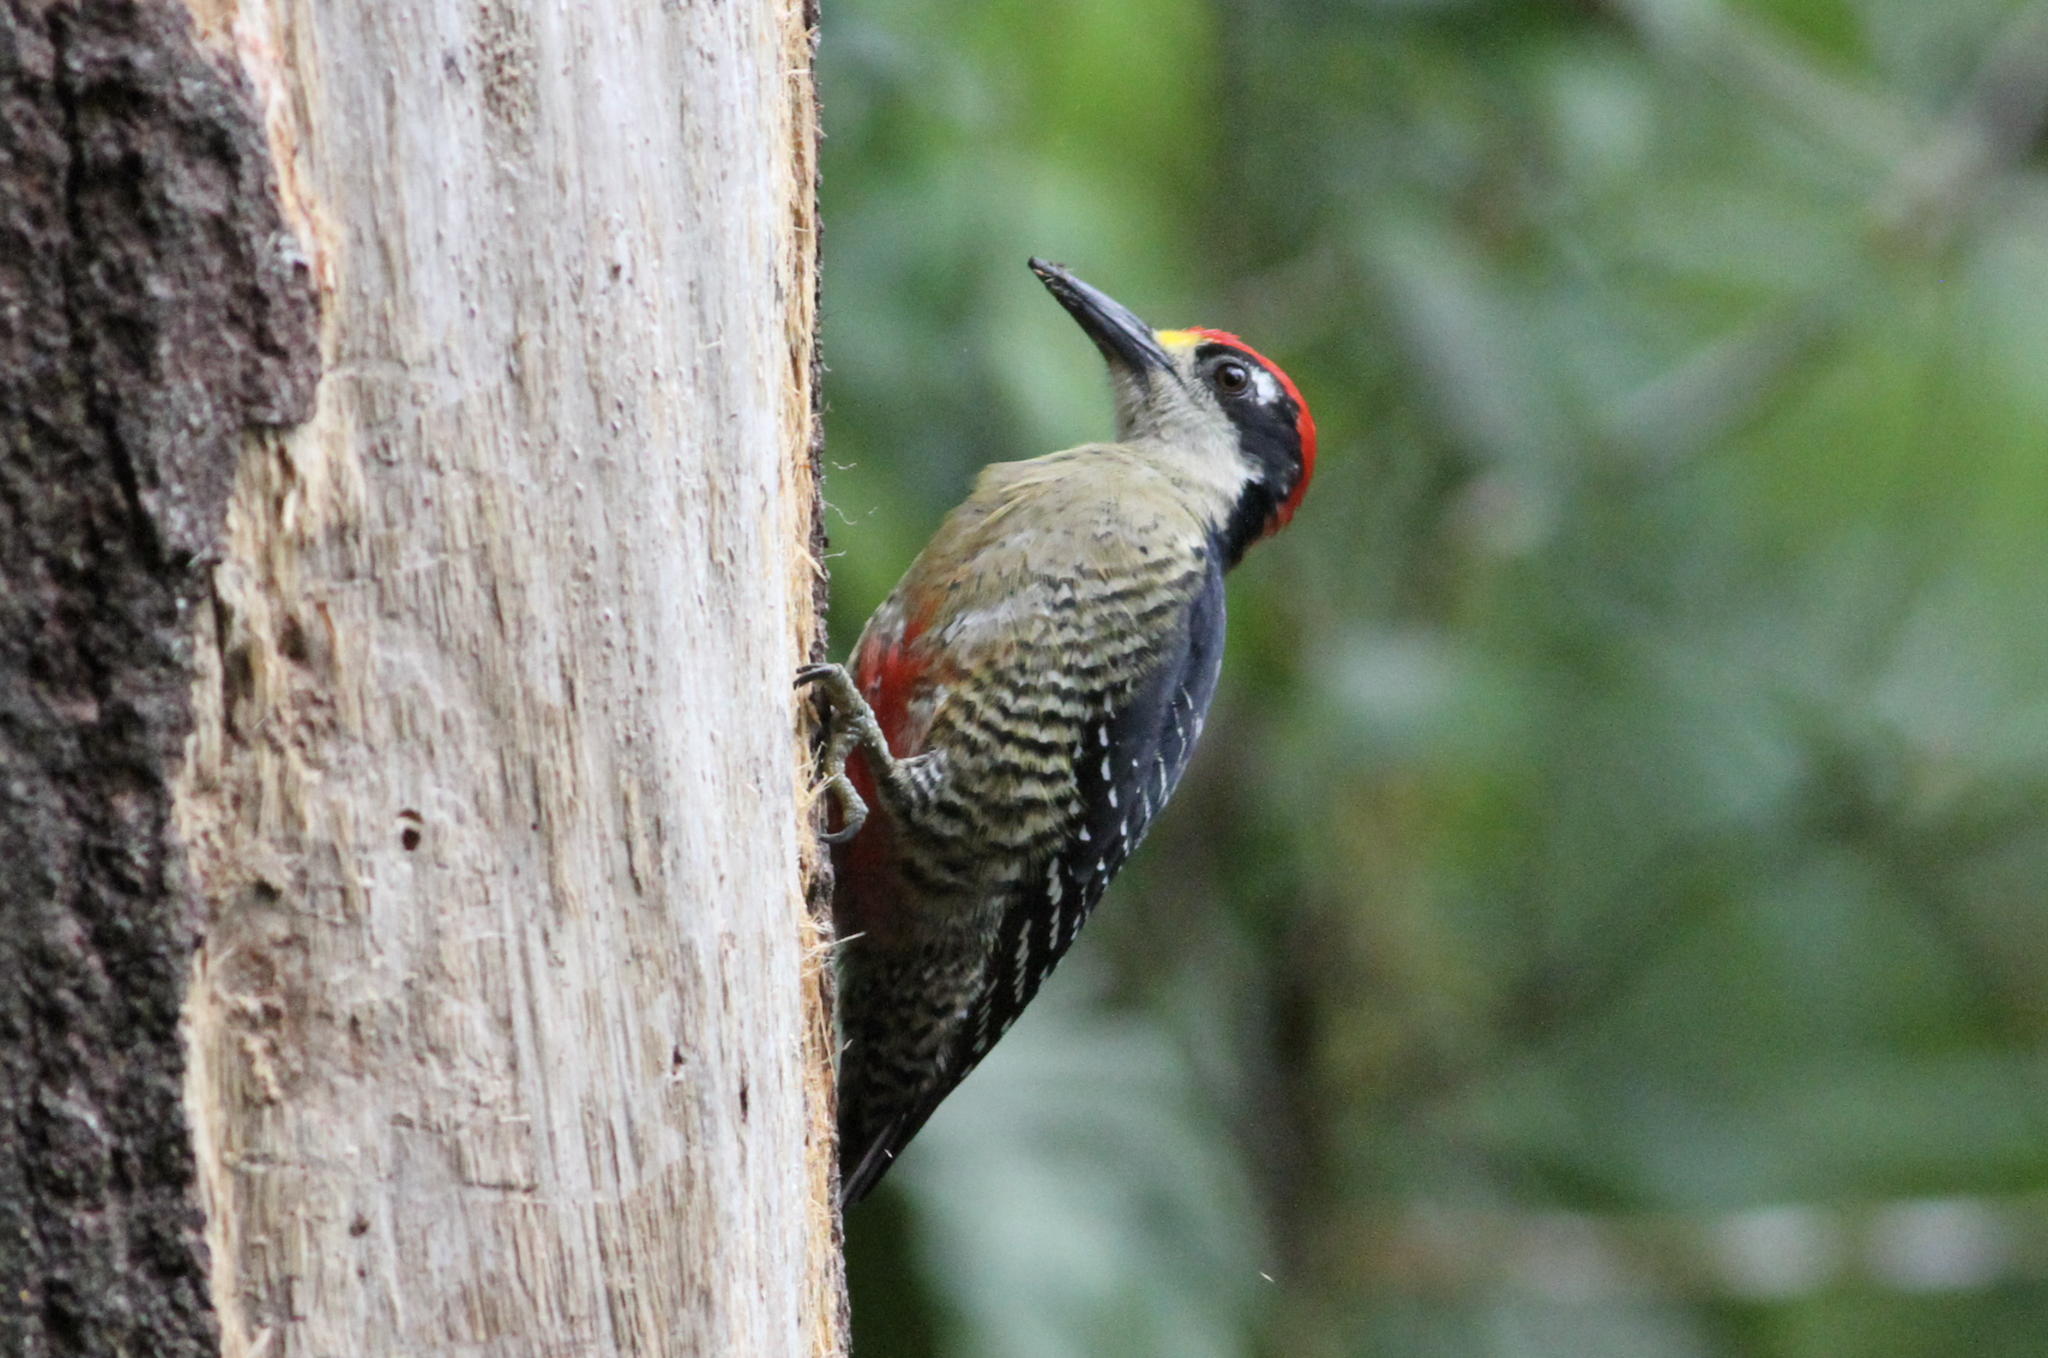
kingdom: Animalia
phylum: Chordata
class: Aves
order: Piciformes
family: Picidae
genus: Melanerpes
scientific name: Melanerpes pucherani
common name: Black-cheeked woodpecker
